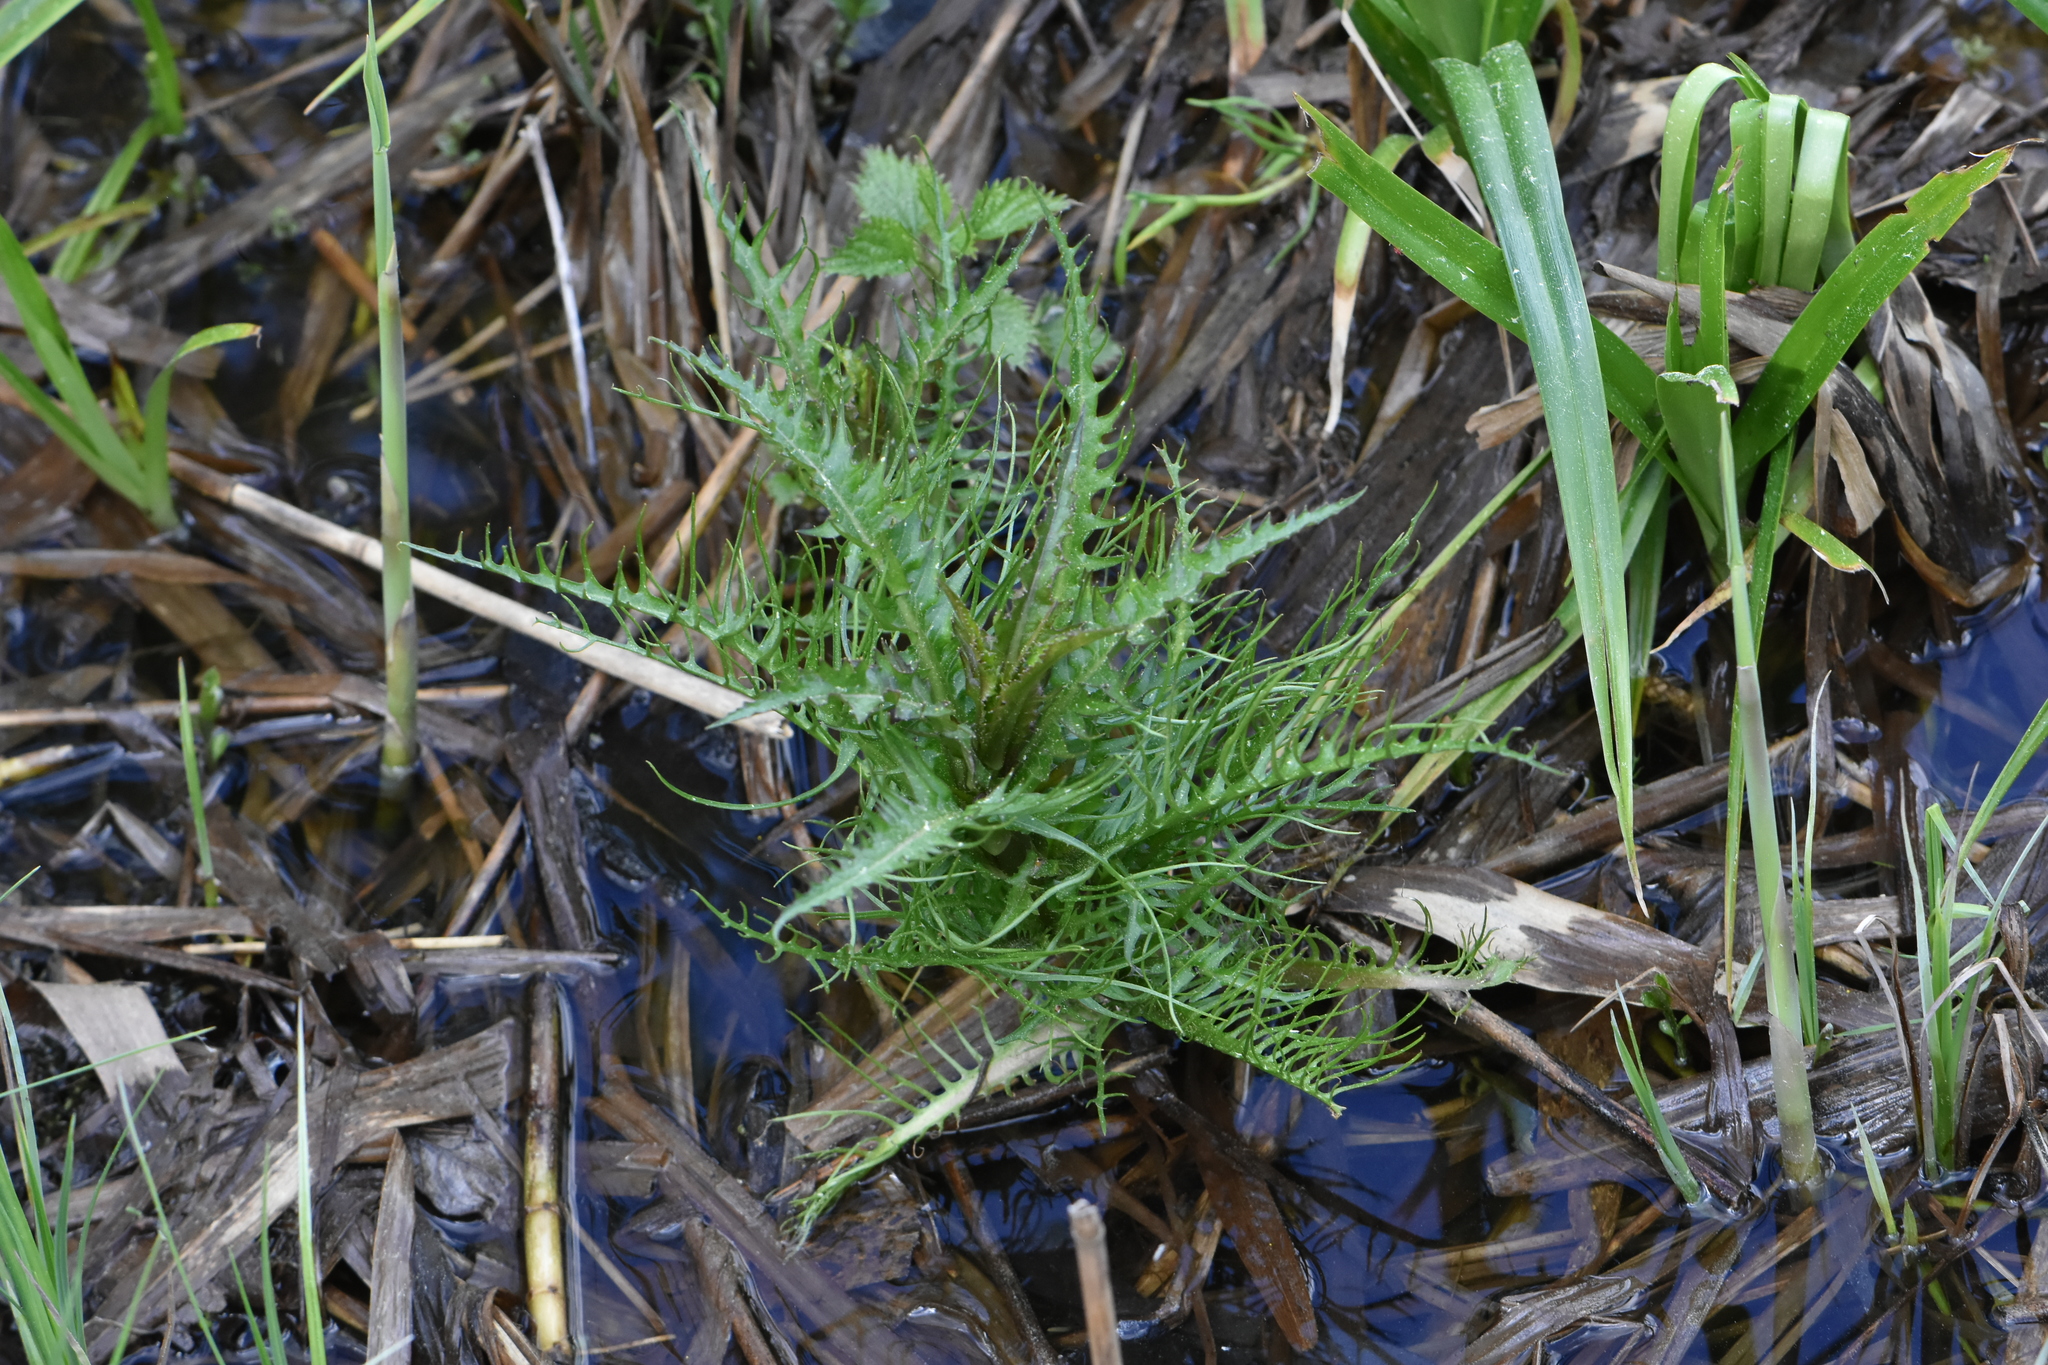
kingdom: Plantae
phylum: Tracheophyta
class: Magnoliopsida
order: Brassicales
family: Brassicaceae
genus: Rorippa
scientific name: Rorippa amphibia
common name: Great yellow-cress
